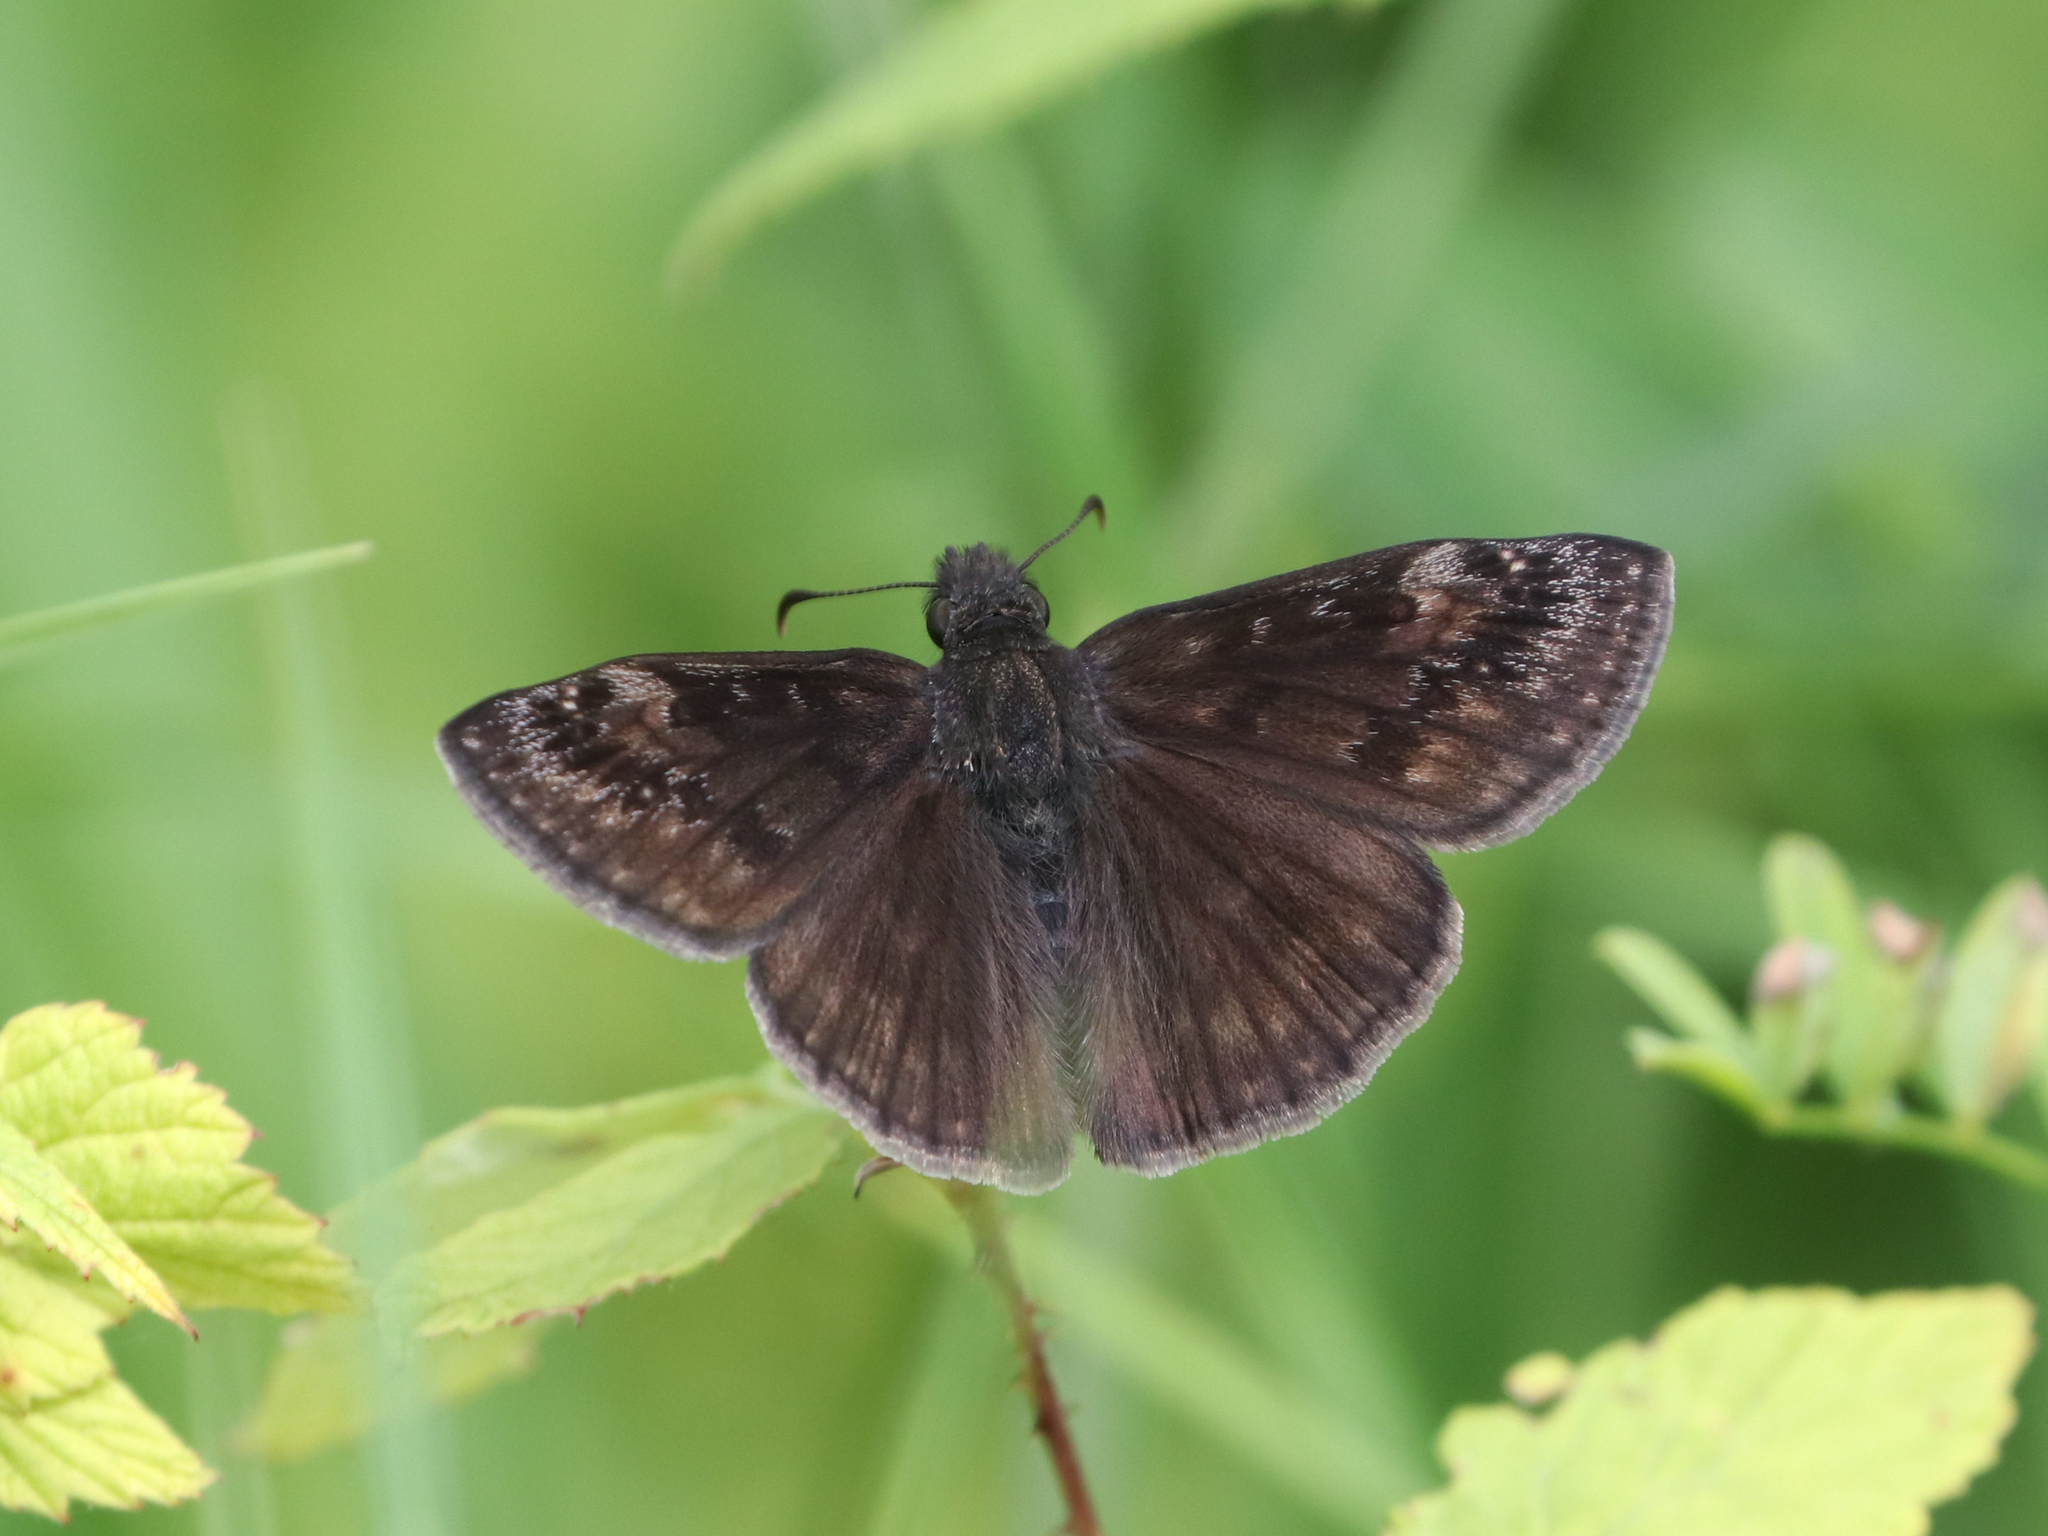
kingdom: Animalia
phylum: Arthropoda
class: Insecta
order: Lepidoptera
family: Hesperiidae
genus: Erynnis
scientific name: Erynnis baptisiae
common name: Wild indigo duskywing
